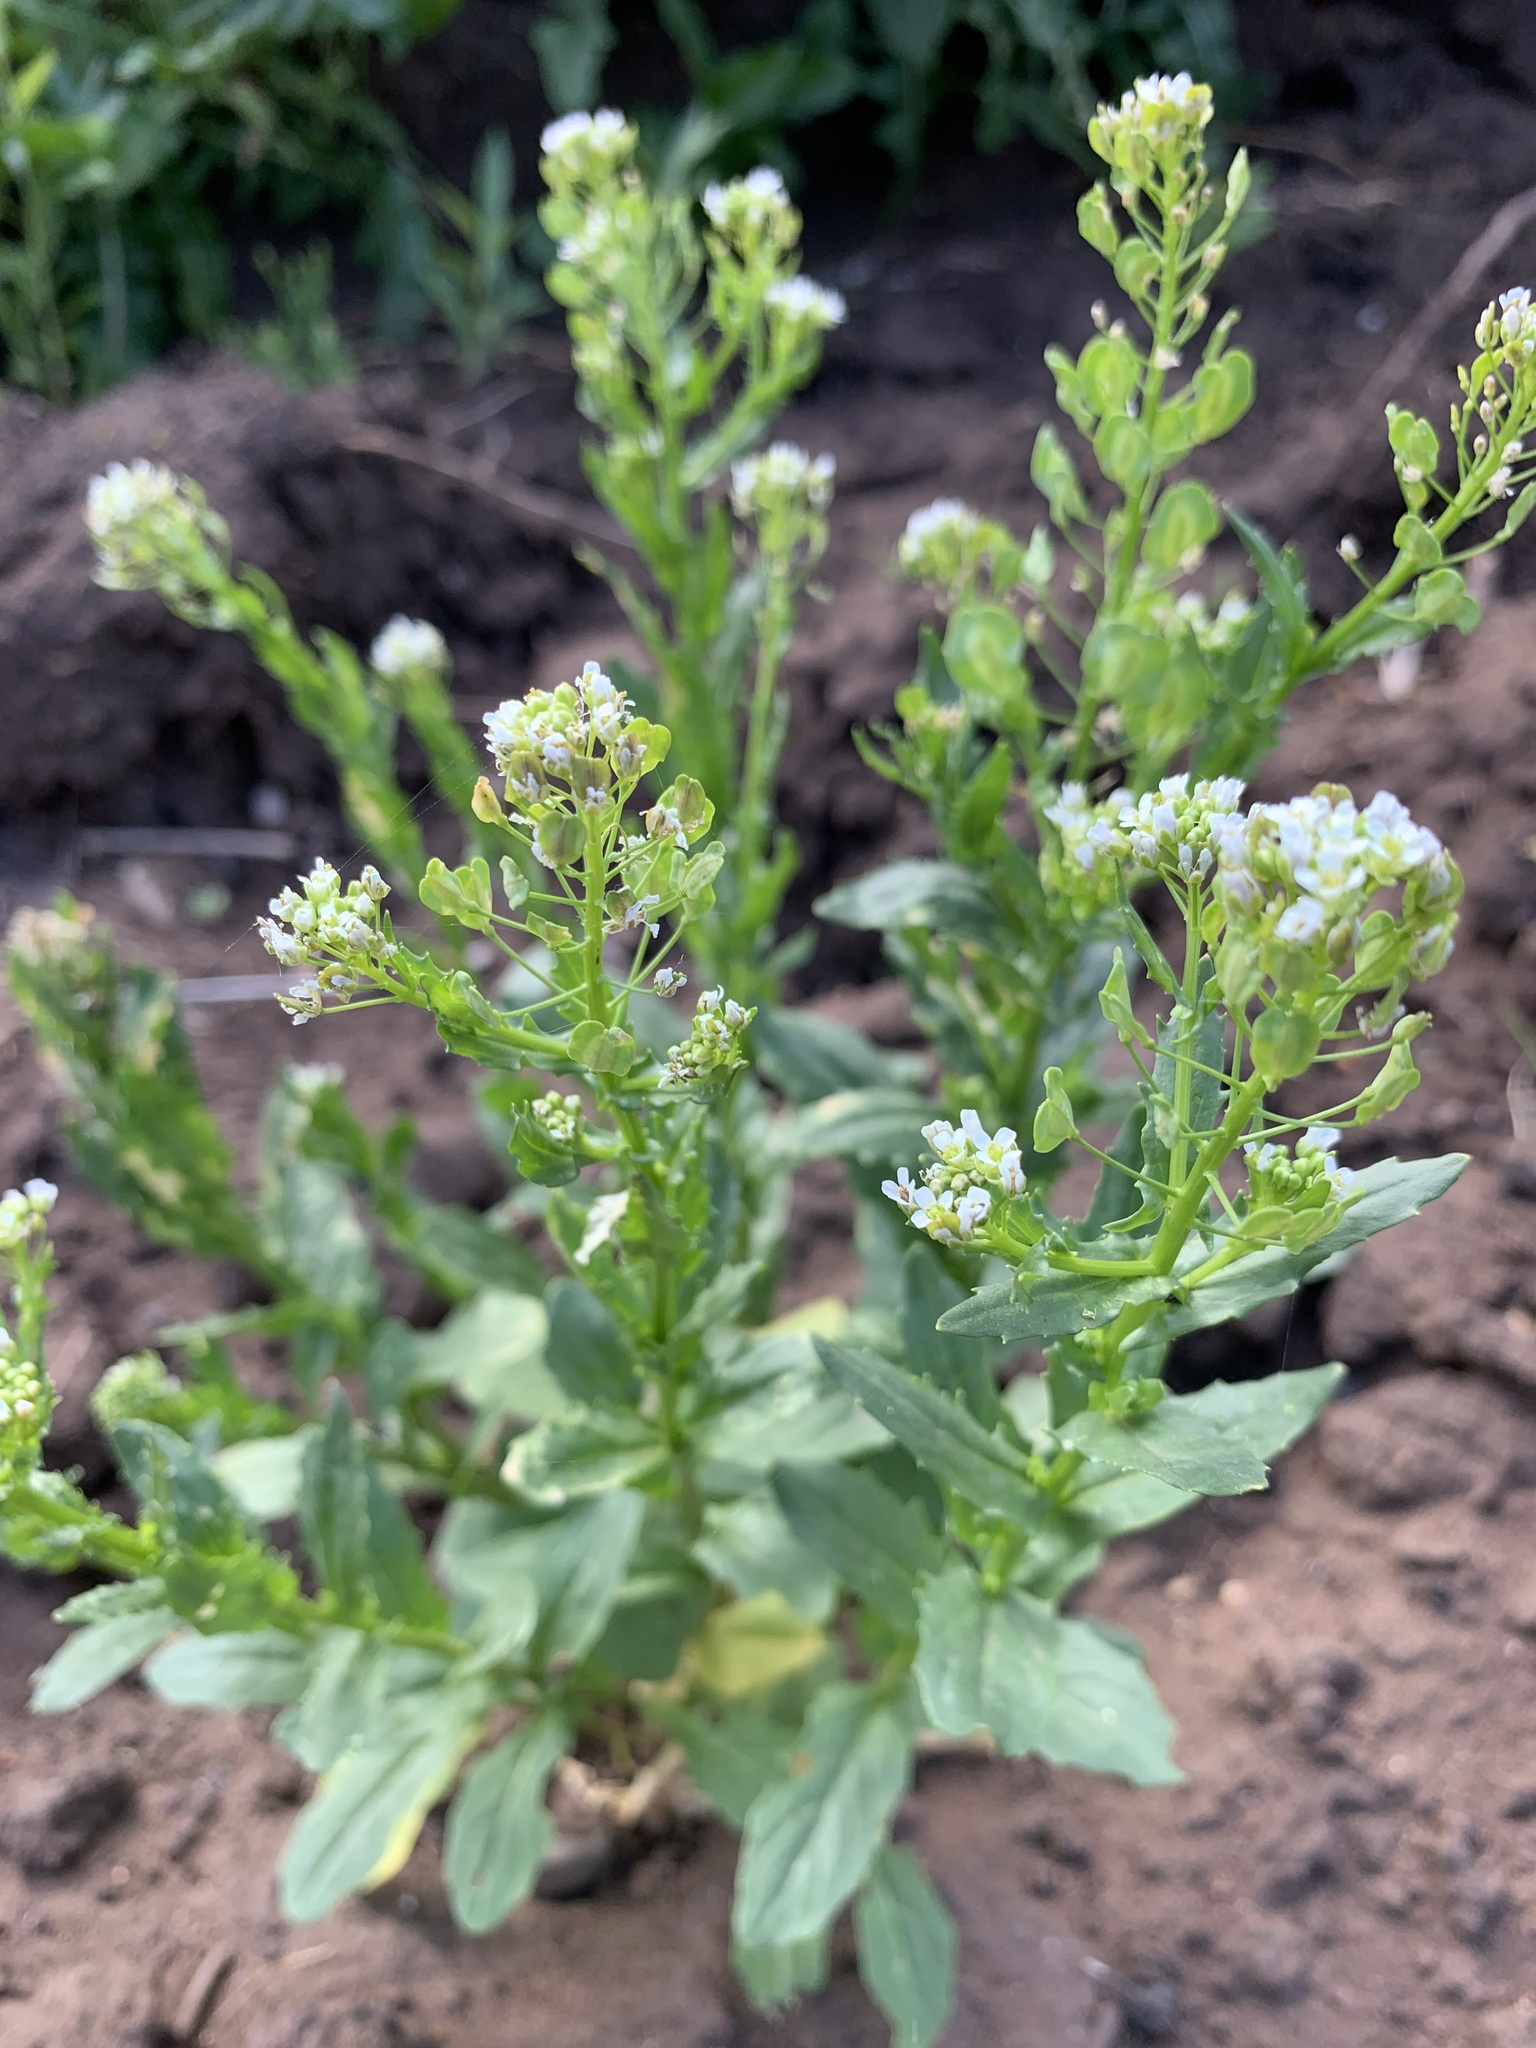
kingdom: Plantae
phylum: Tracheophyta
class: Magnoliopsida
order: Brassicales
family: Brassicaceae
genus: Thlaspi
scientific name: Thlaspi arvense
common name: Field pennycress
